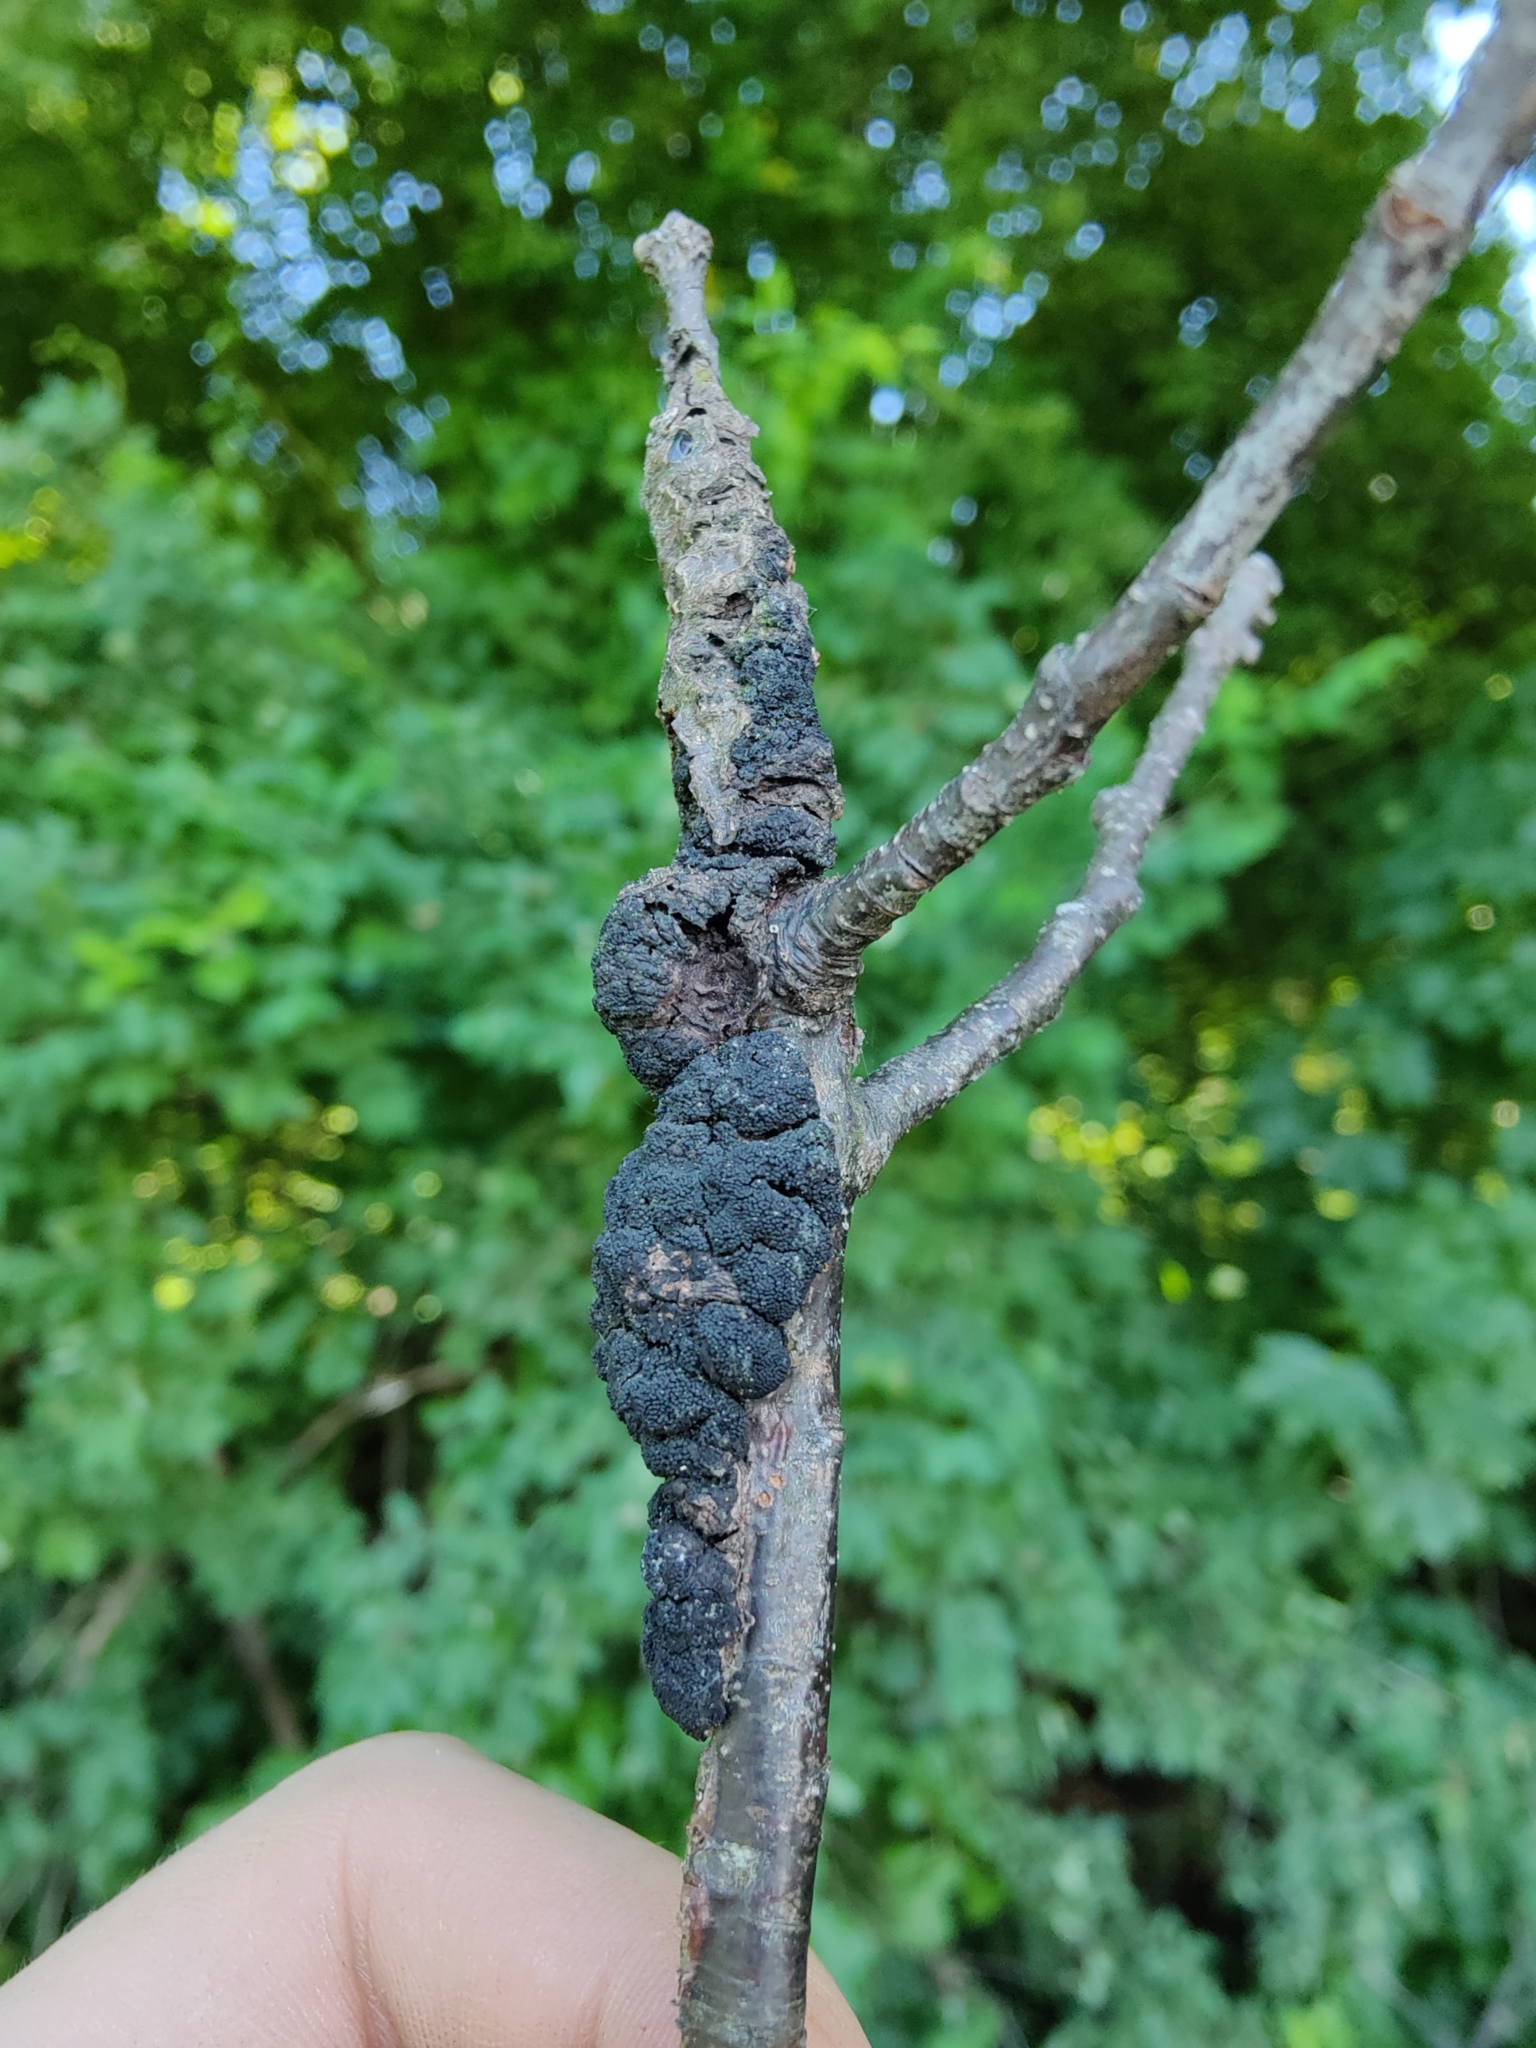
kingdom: Fungi
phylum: Ascomycota
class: Dothideomycetes
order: Venturiales
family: Venturiaceae
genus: Apiosporina
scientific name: Apiosporina morbosa
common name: Black knot
